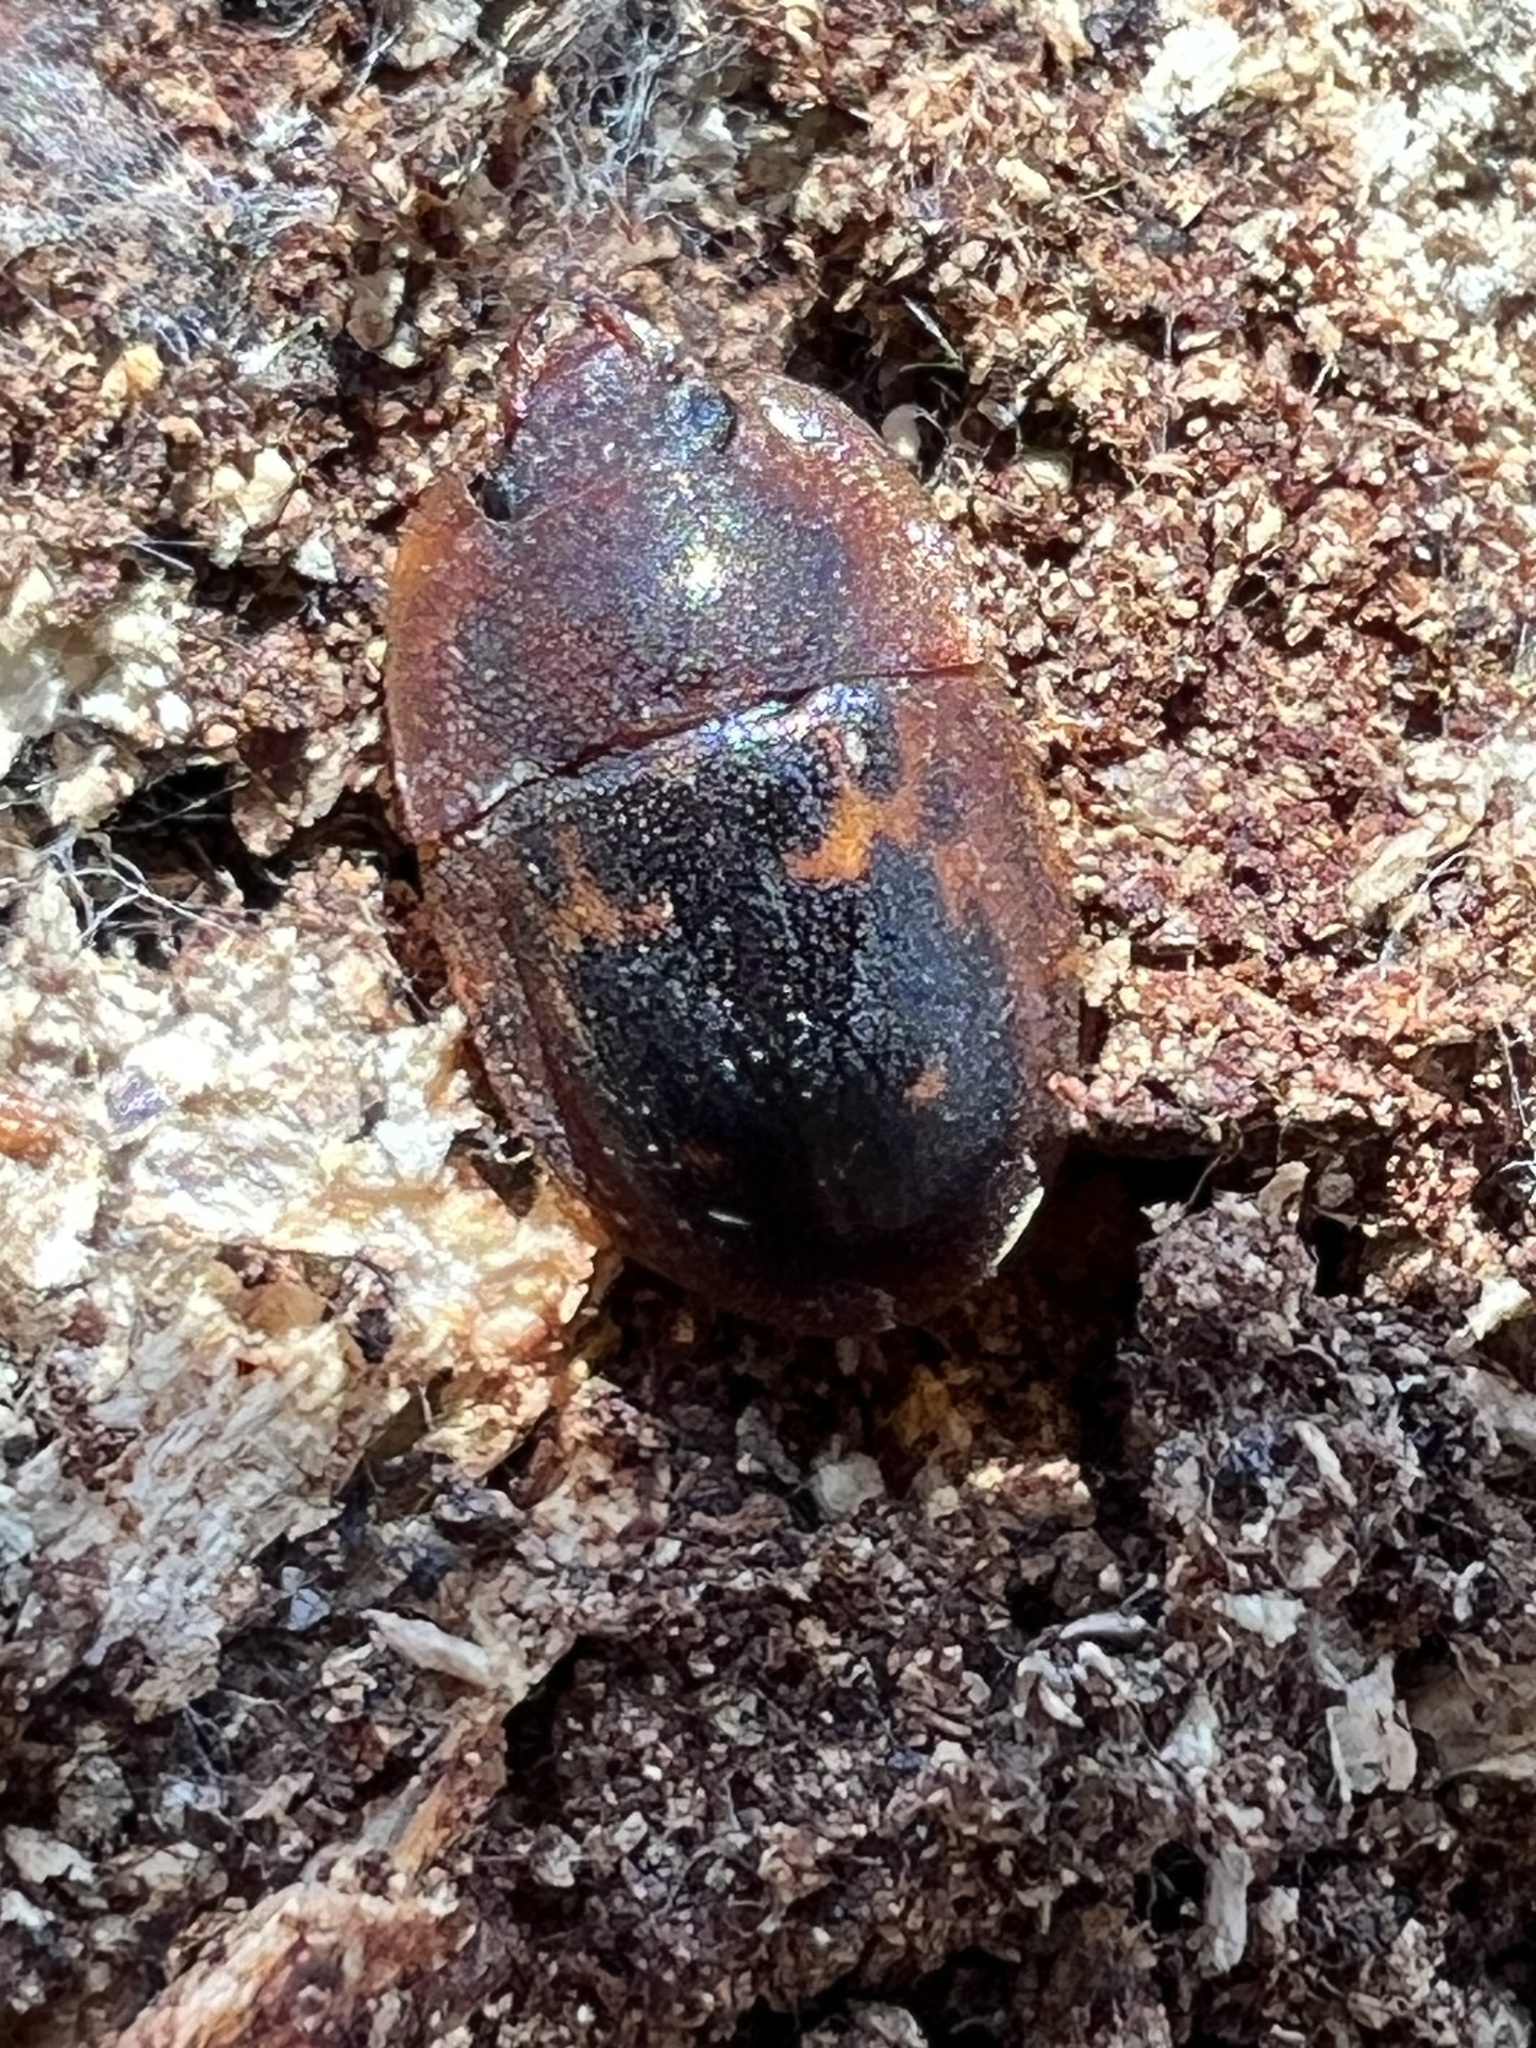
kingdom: Animalia
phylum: Arthropoda
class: Insecta
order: Coleoptera
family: Nitidulidae
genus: Prometopia
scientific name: Prometopia sexmaculata
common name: Six-spotted sap-feeding beetle
